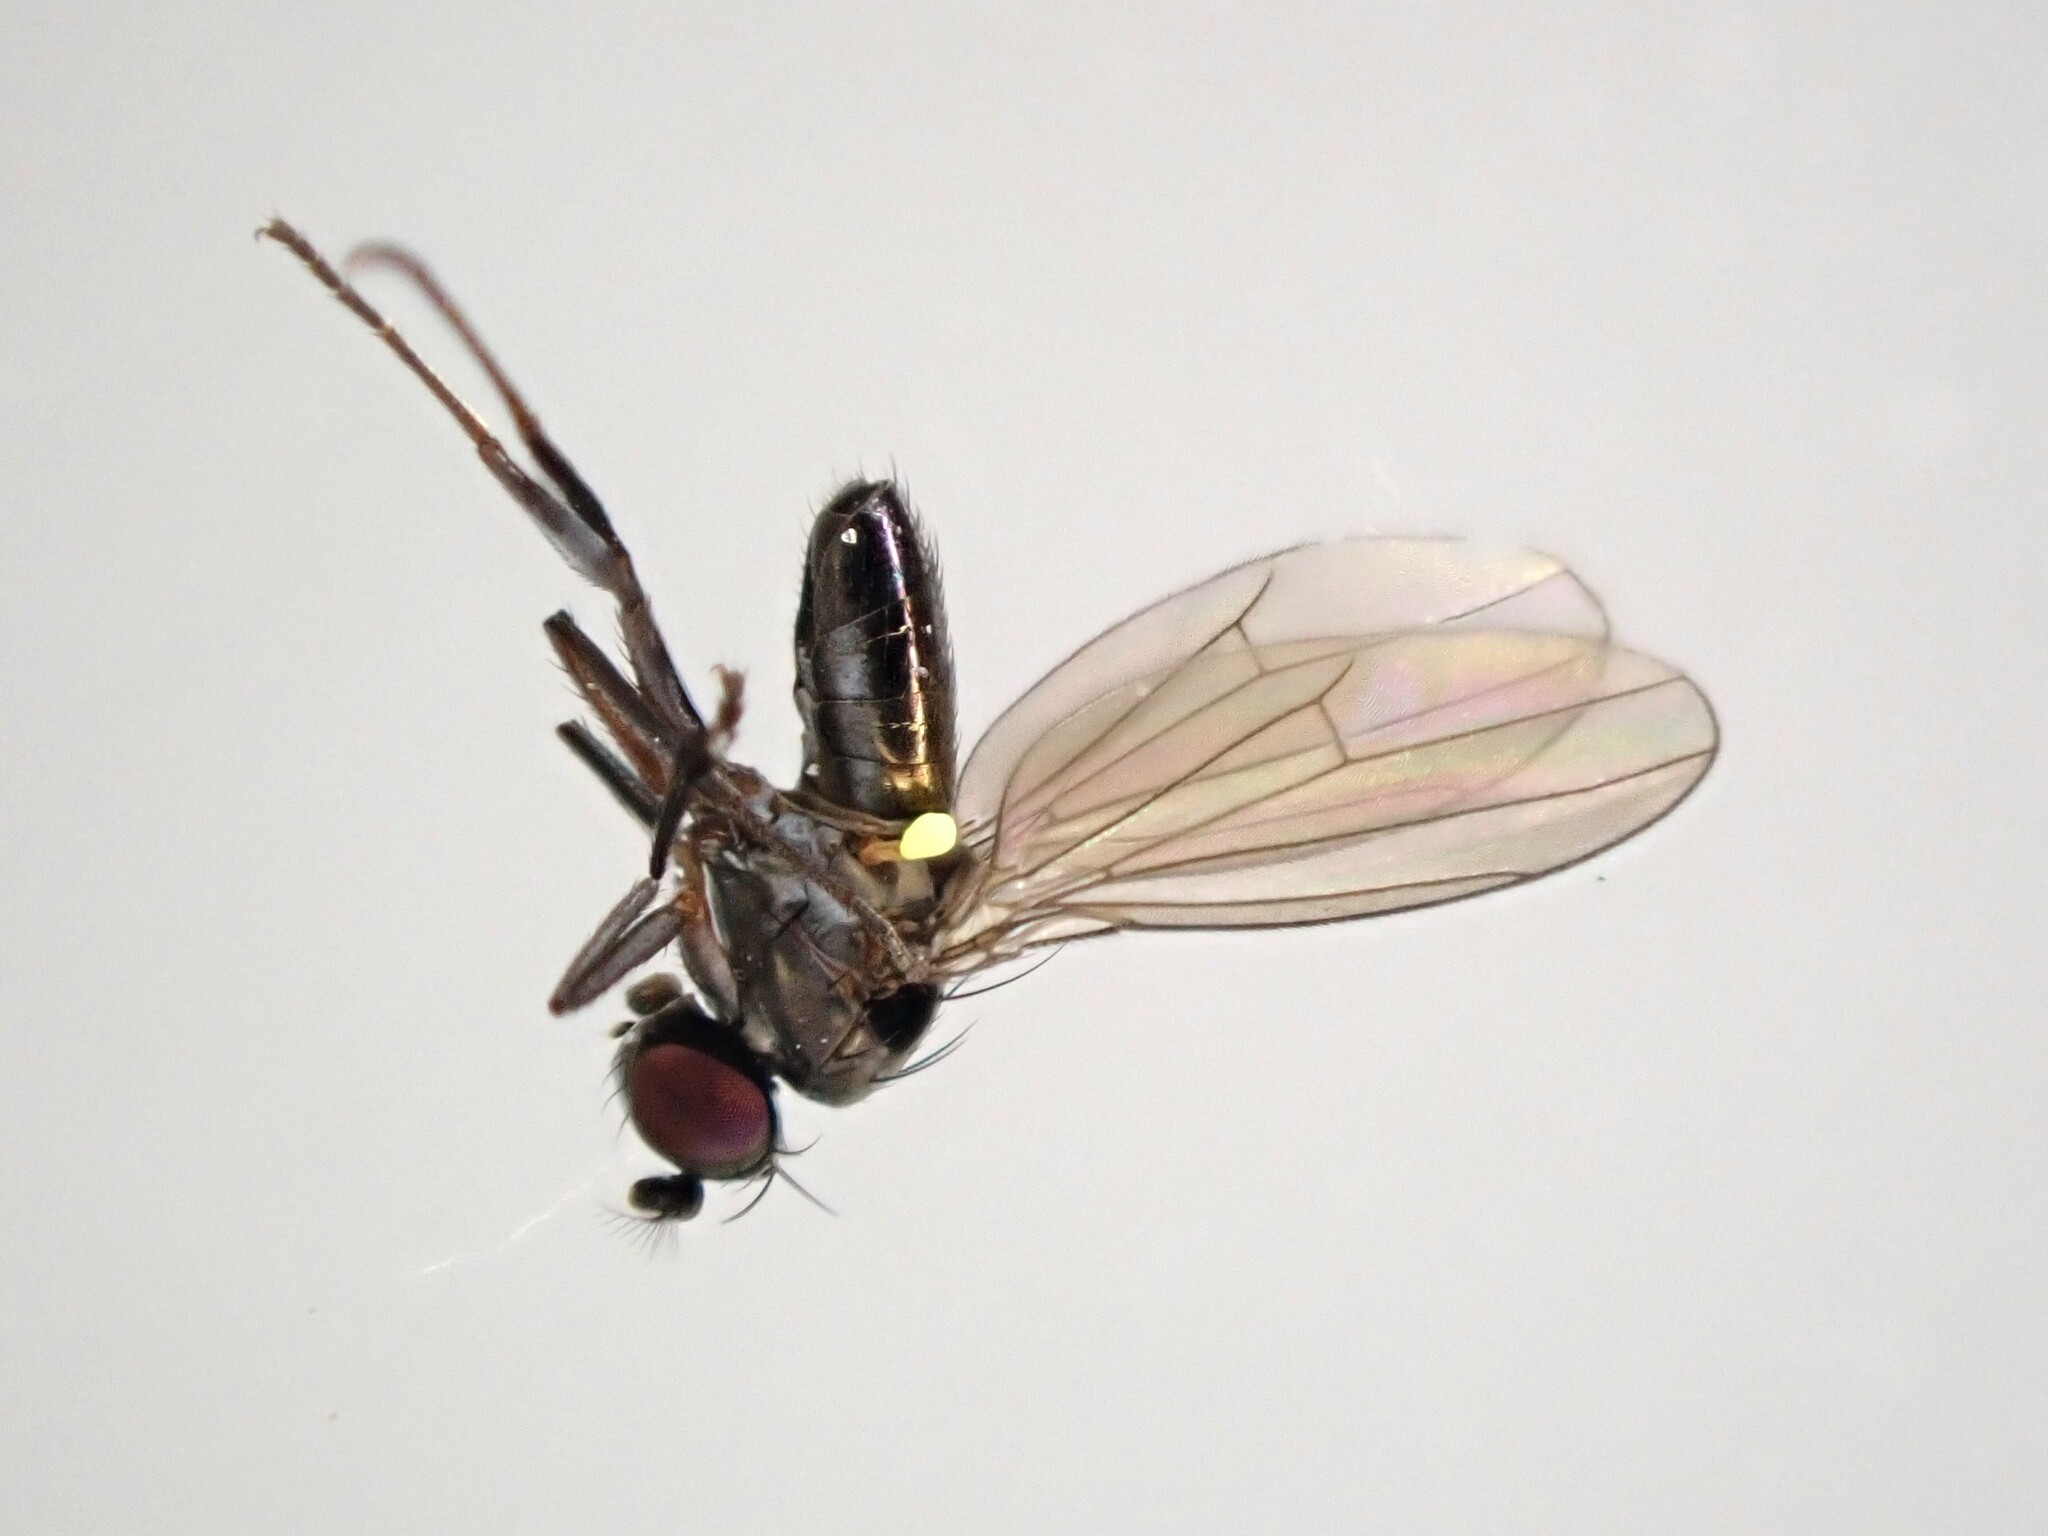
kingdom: Animalia
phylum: Arthropoda
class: Insecta
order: Diptera
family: Ephydridae
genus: Hydrellia
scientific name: Hydrellia tritici
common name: Shore fly
